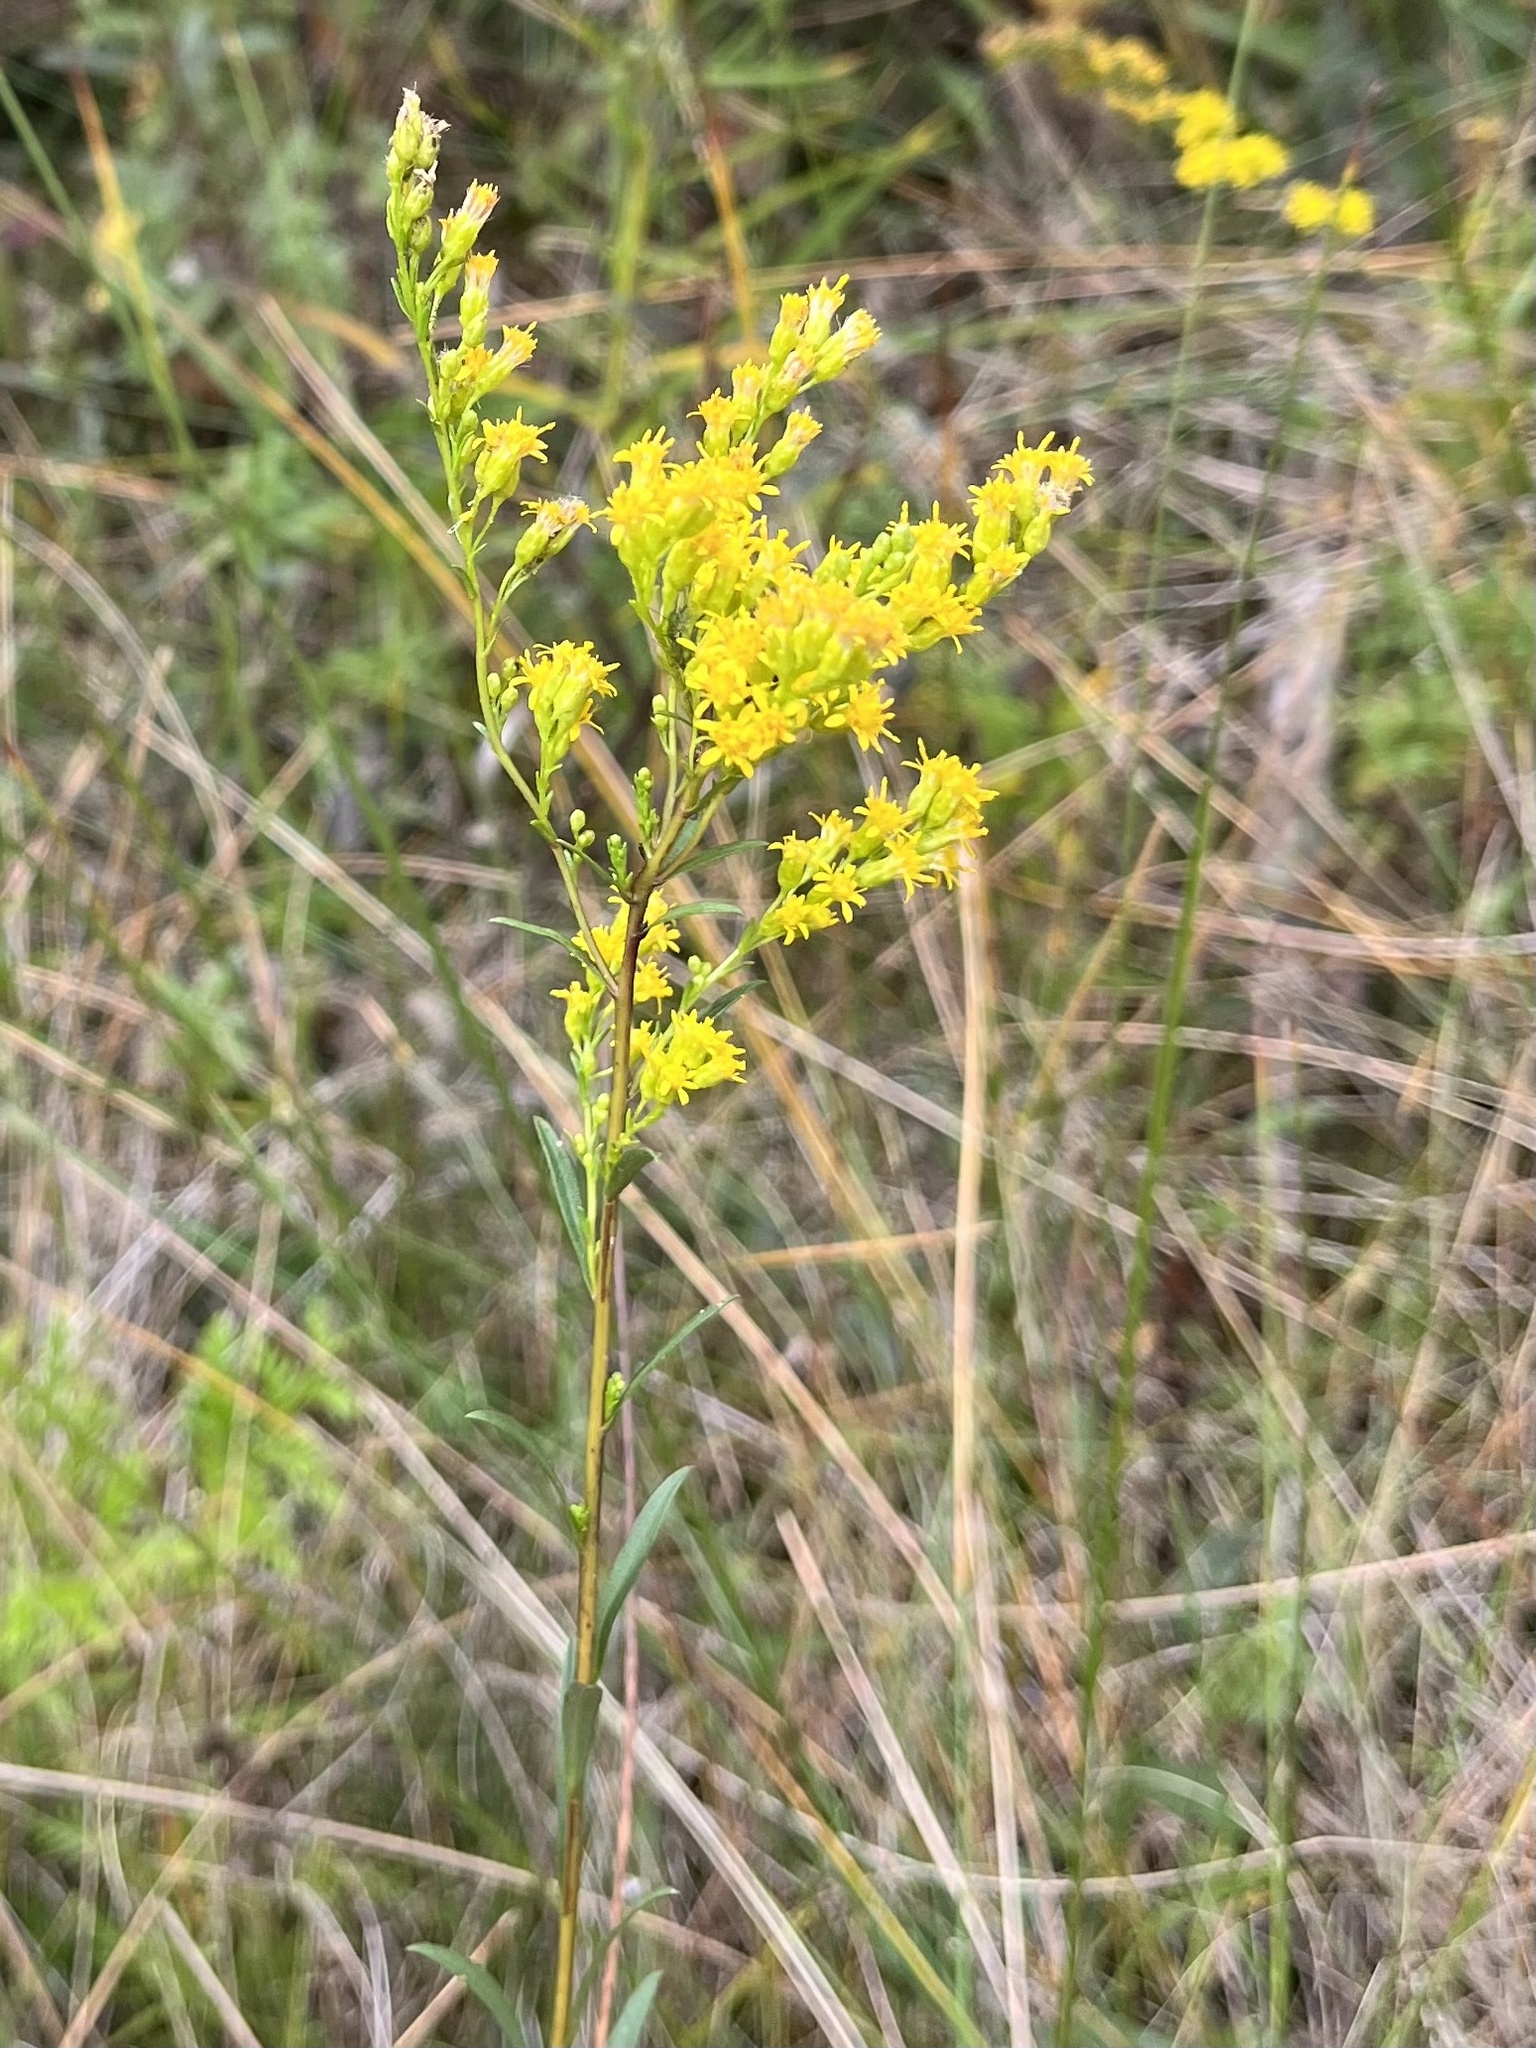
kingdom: Plantae
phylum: Tracheophyta
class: Magnoliopsida
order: Asterales
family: Asteraceae
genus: Solidago
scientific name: Solidago uliginosa
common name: Bog goldenrod
